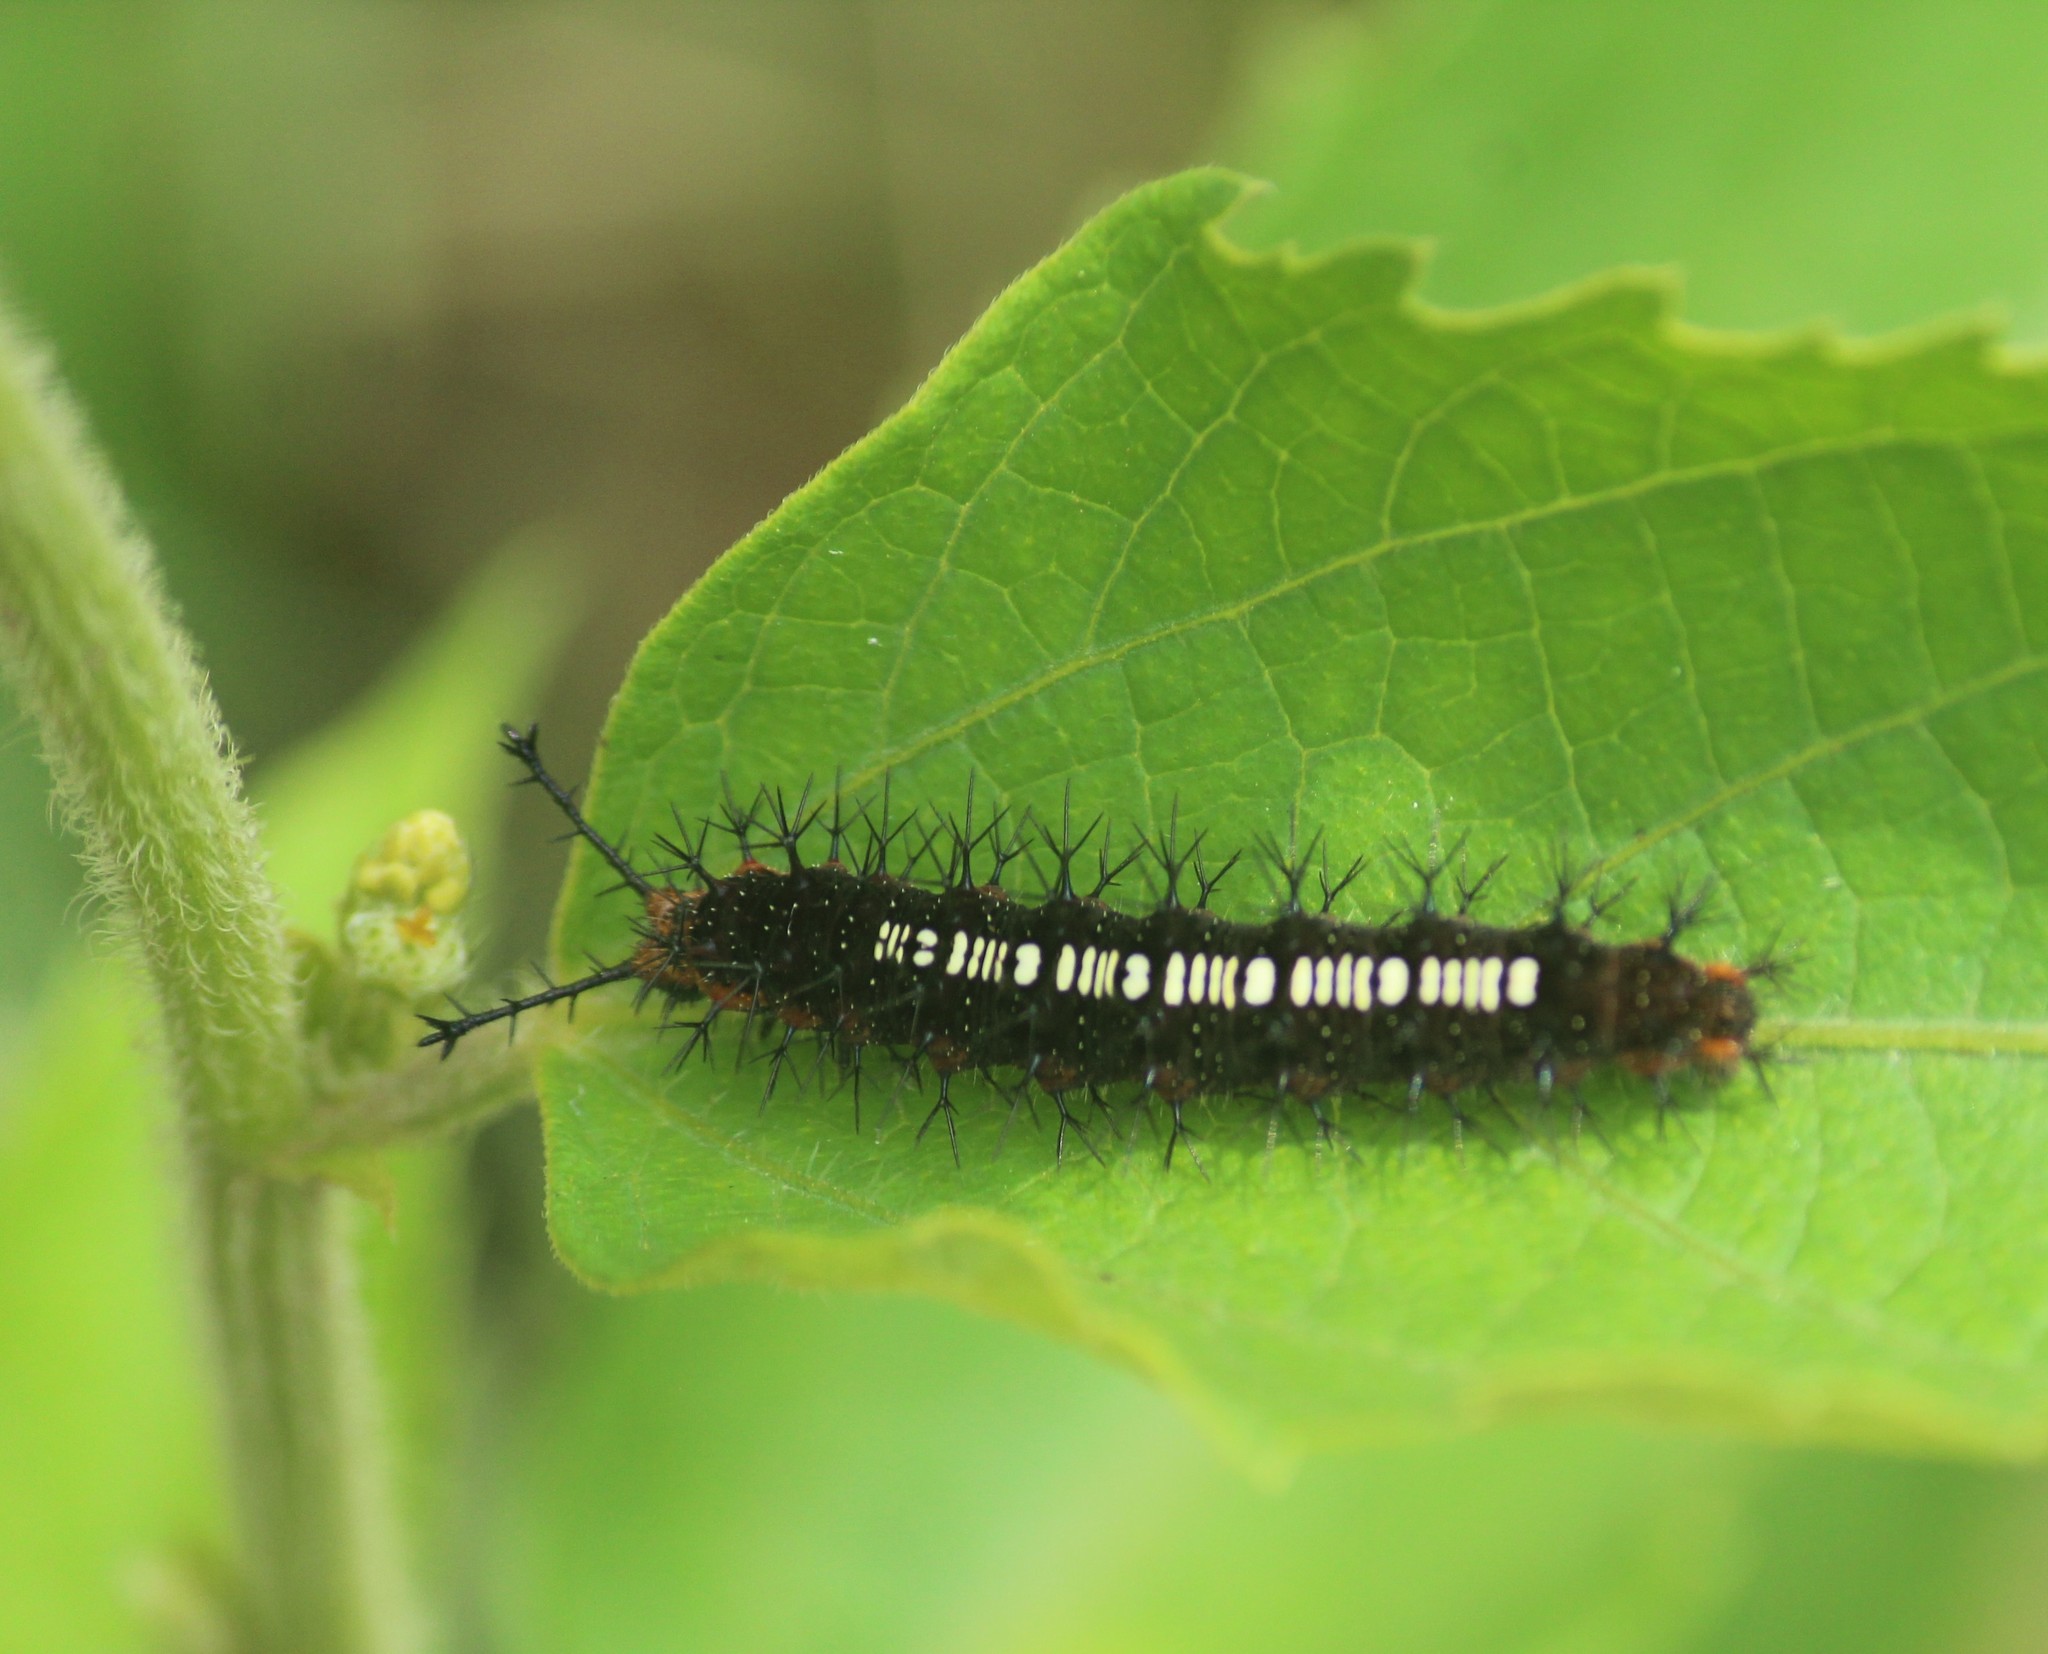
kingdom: Animalia
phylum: Arthropoda
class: Insecta
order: Lepidoptera
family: Nymphalidae
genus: Ariadne
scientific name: Ariadne ariadne
